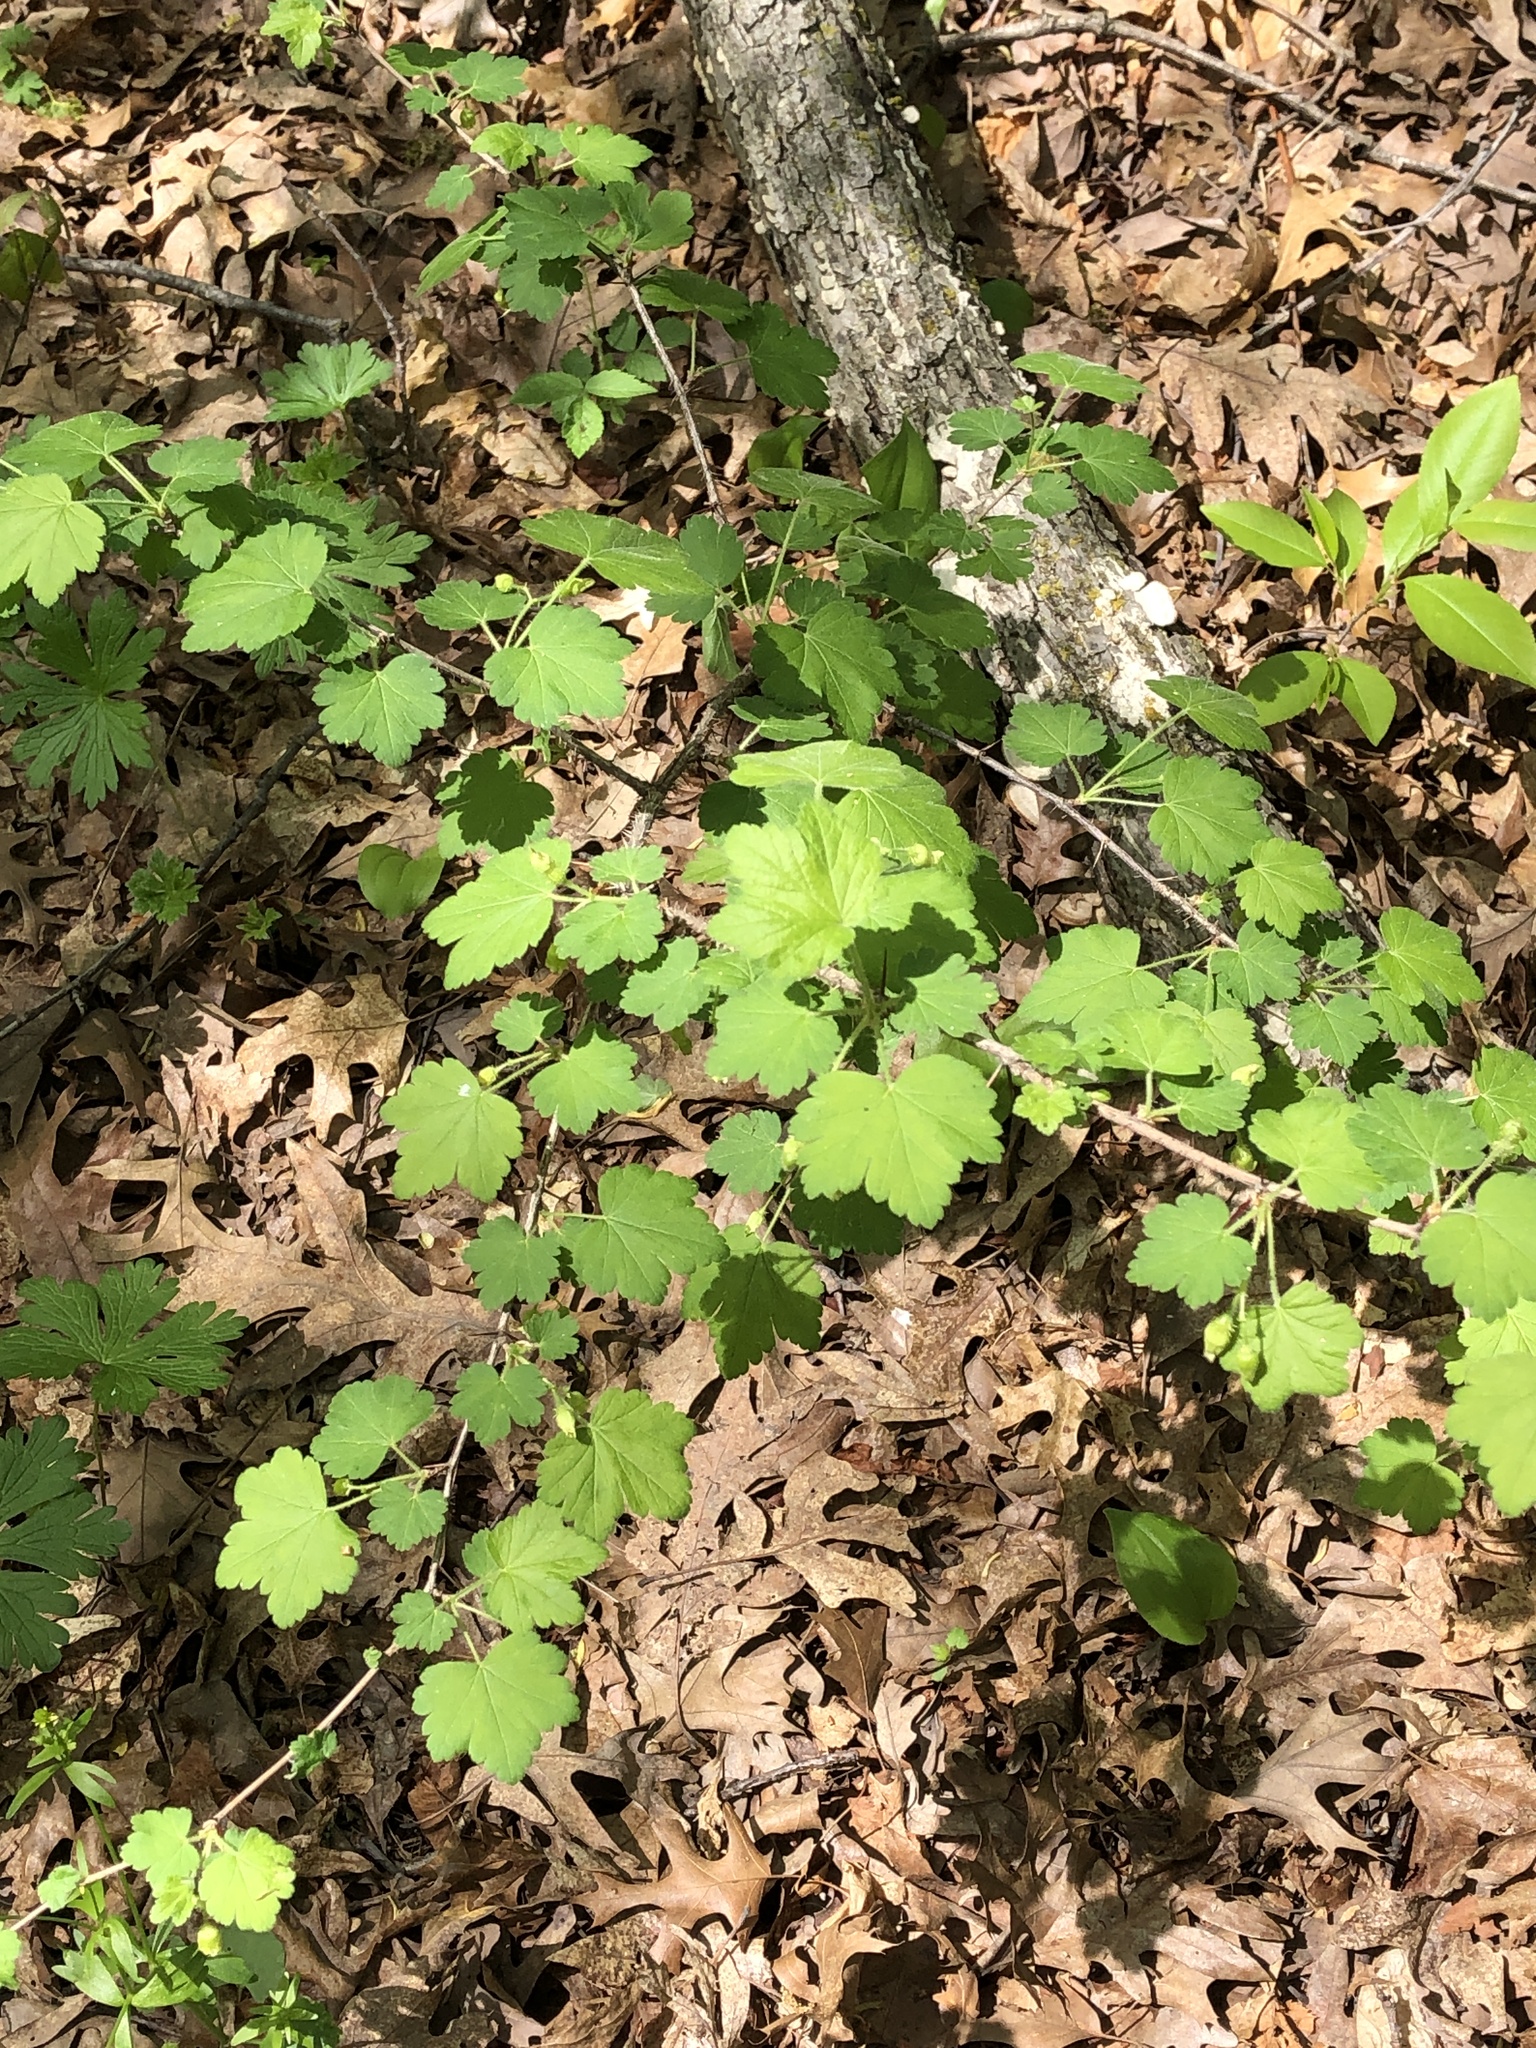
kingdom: Plantae
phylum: Tracheophyta
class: Magnoliopsida
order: Saxifragales
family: Grossulariaceae
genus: Ribes
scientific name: Ribes cynosbati
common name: American gooseberry
